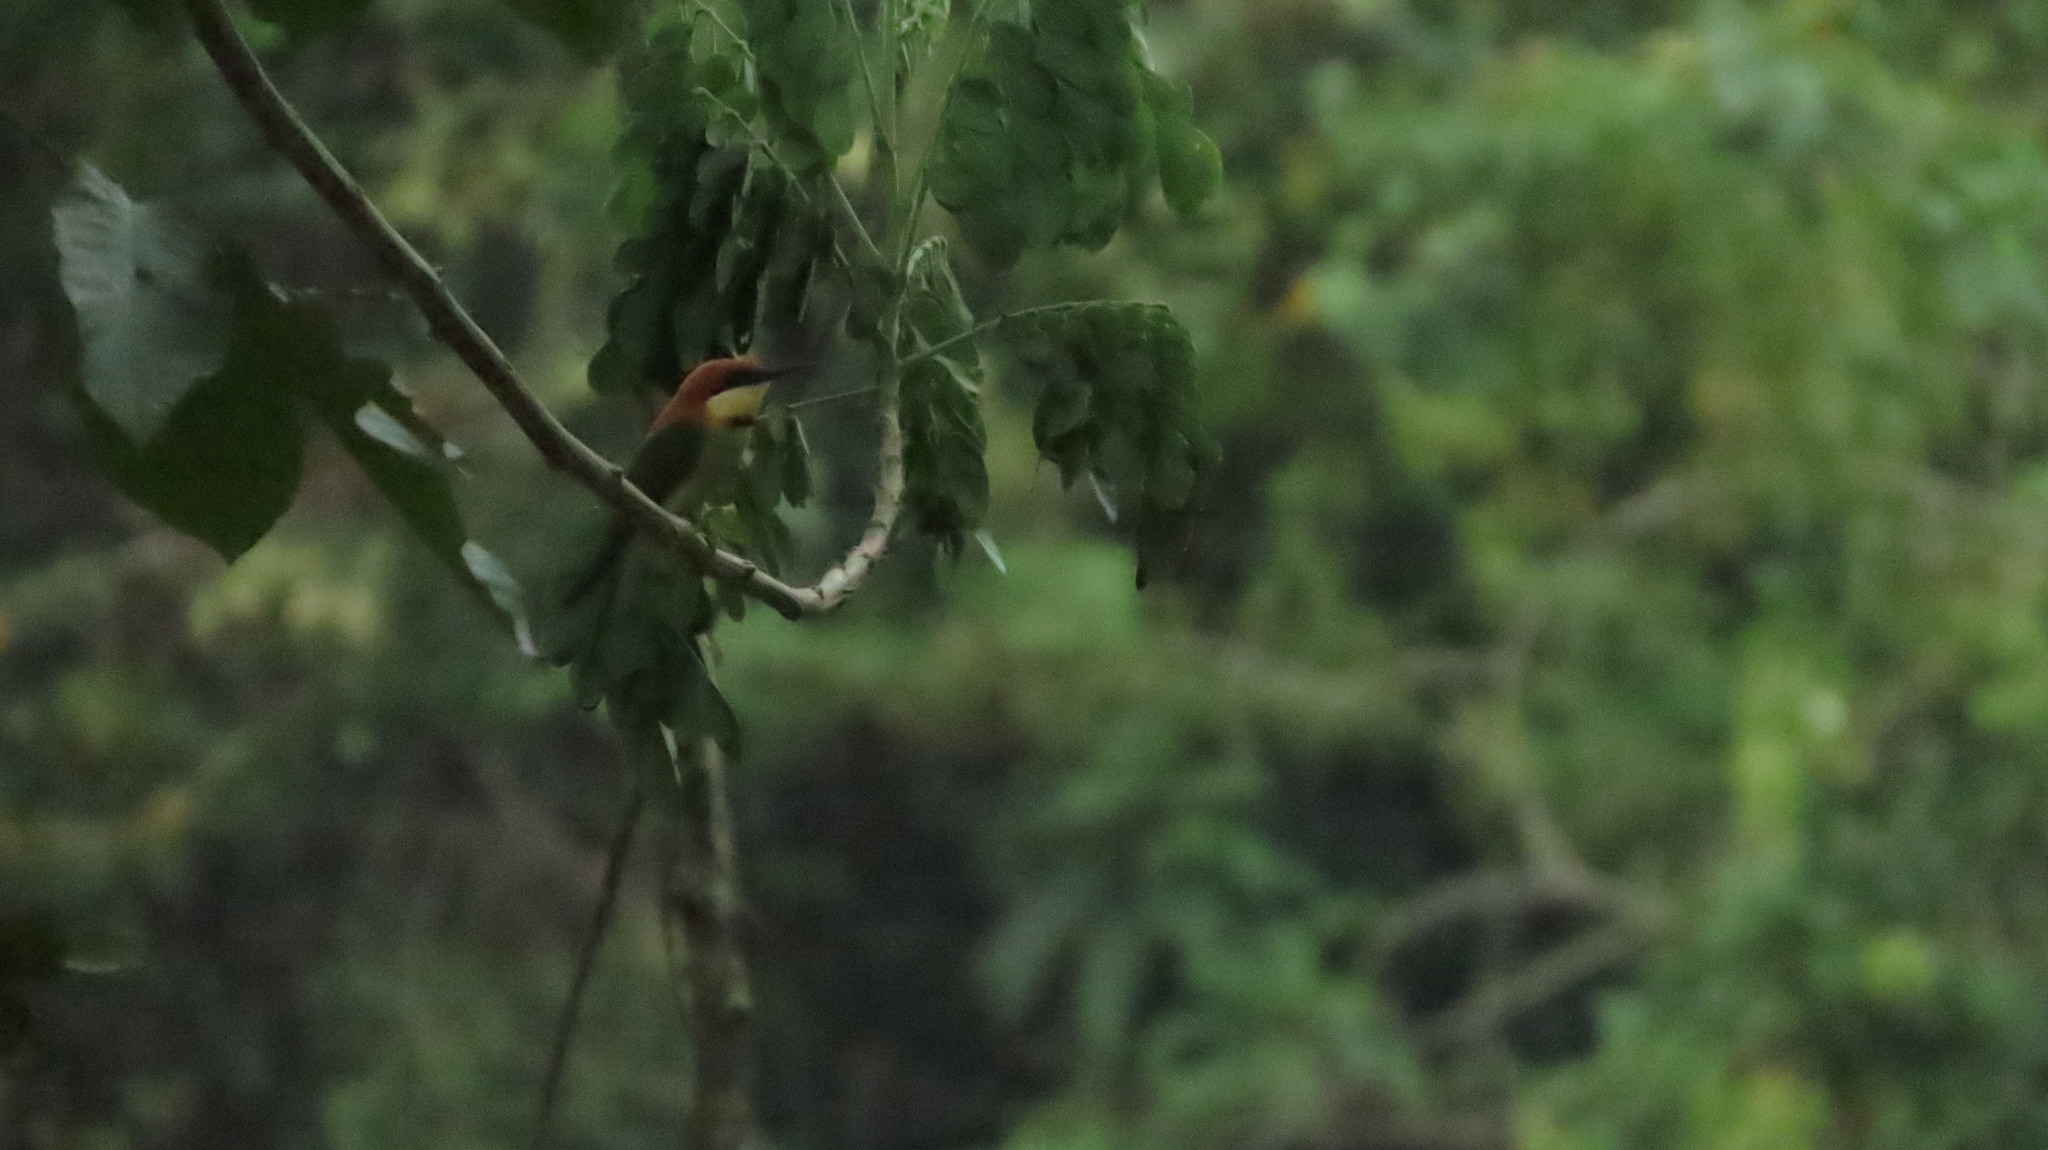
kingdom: Animalia
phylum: Chordata
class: Aves
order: Coraciiformes
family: Meropidae
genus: Merops
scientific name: Merops leschenaulti
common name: Chestnut-headed bee-eater
